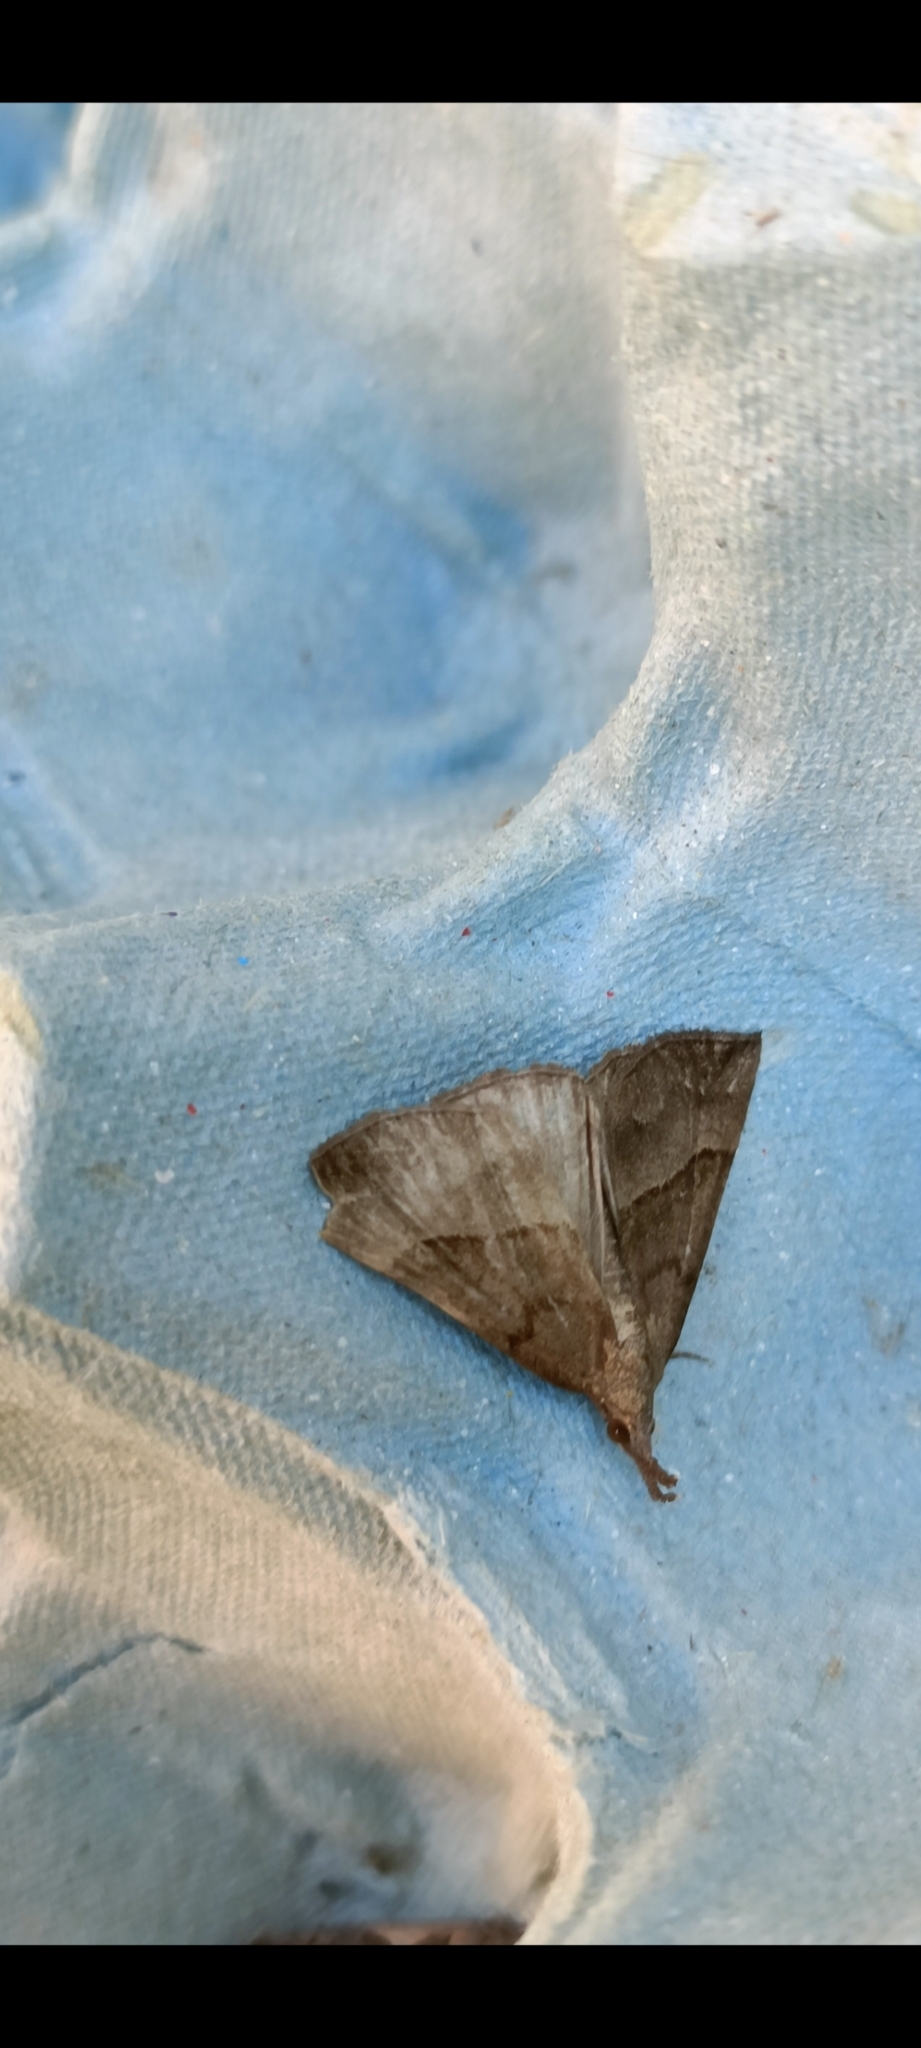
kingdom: Animalia
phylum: Arthropoda
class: Insecta
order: Lepidoptera
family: Erebidae
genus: Hypena
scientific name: Hypena proboscidalis
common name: Snout
